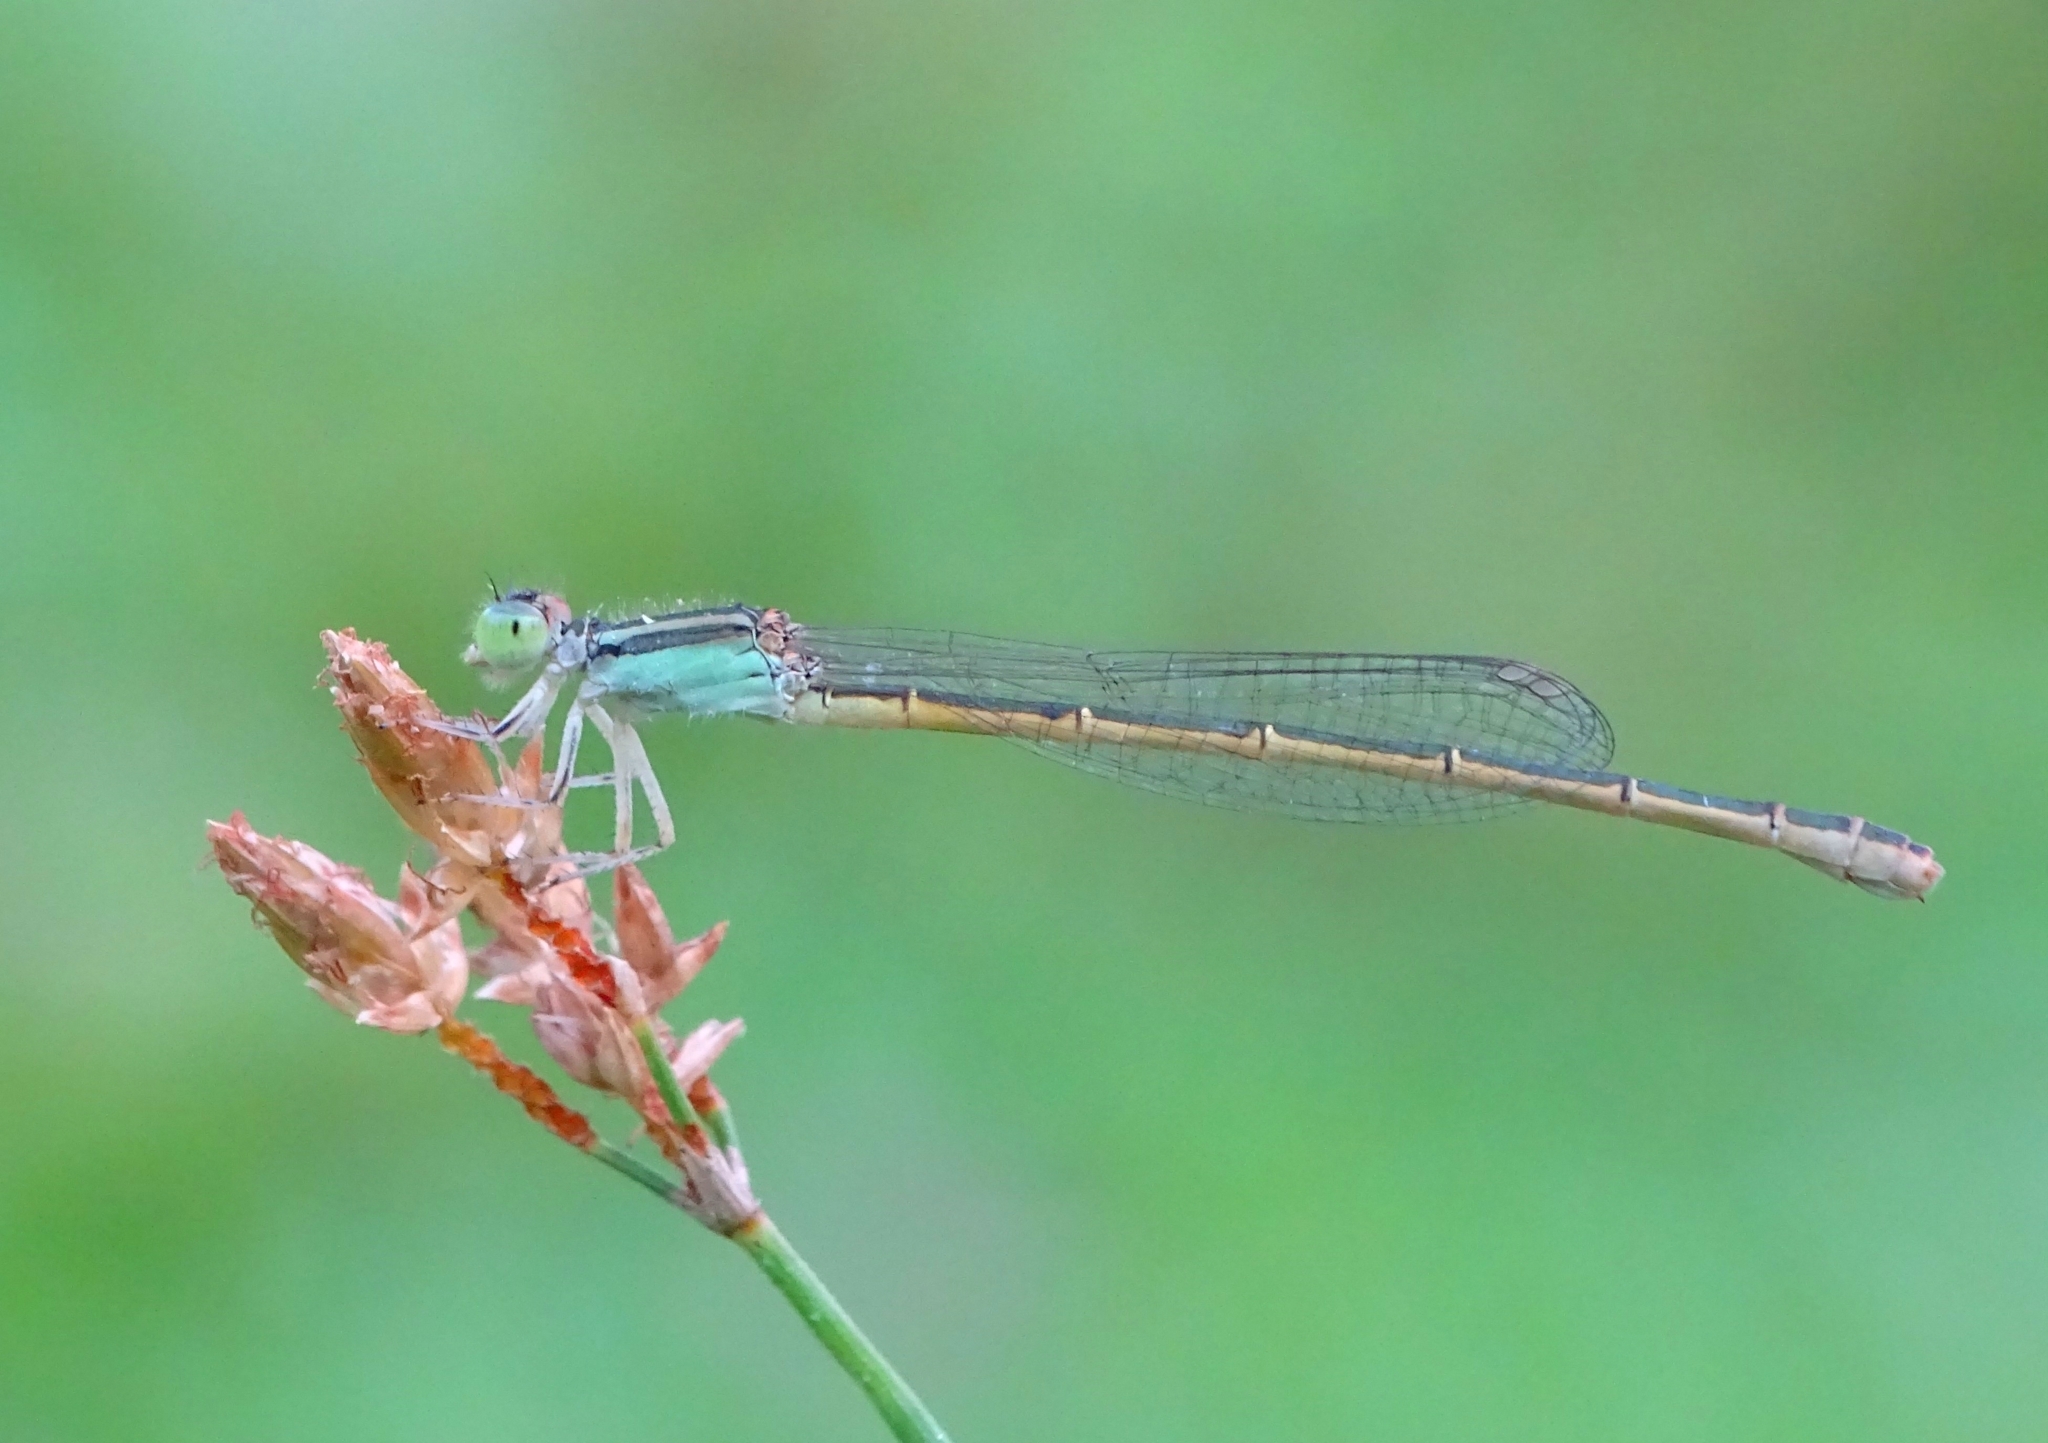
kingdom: Animalia
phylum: Arthropoda
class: Insecta
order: Odonata
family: Coenagrionidae
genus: Ischnura
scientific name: Ischnura rubilio
